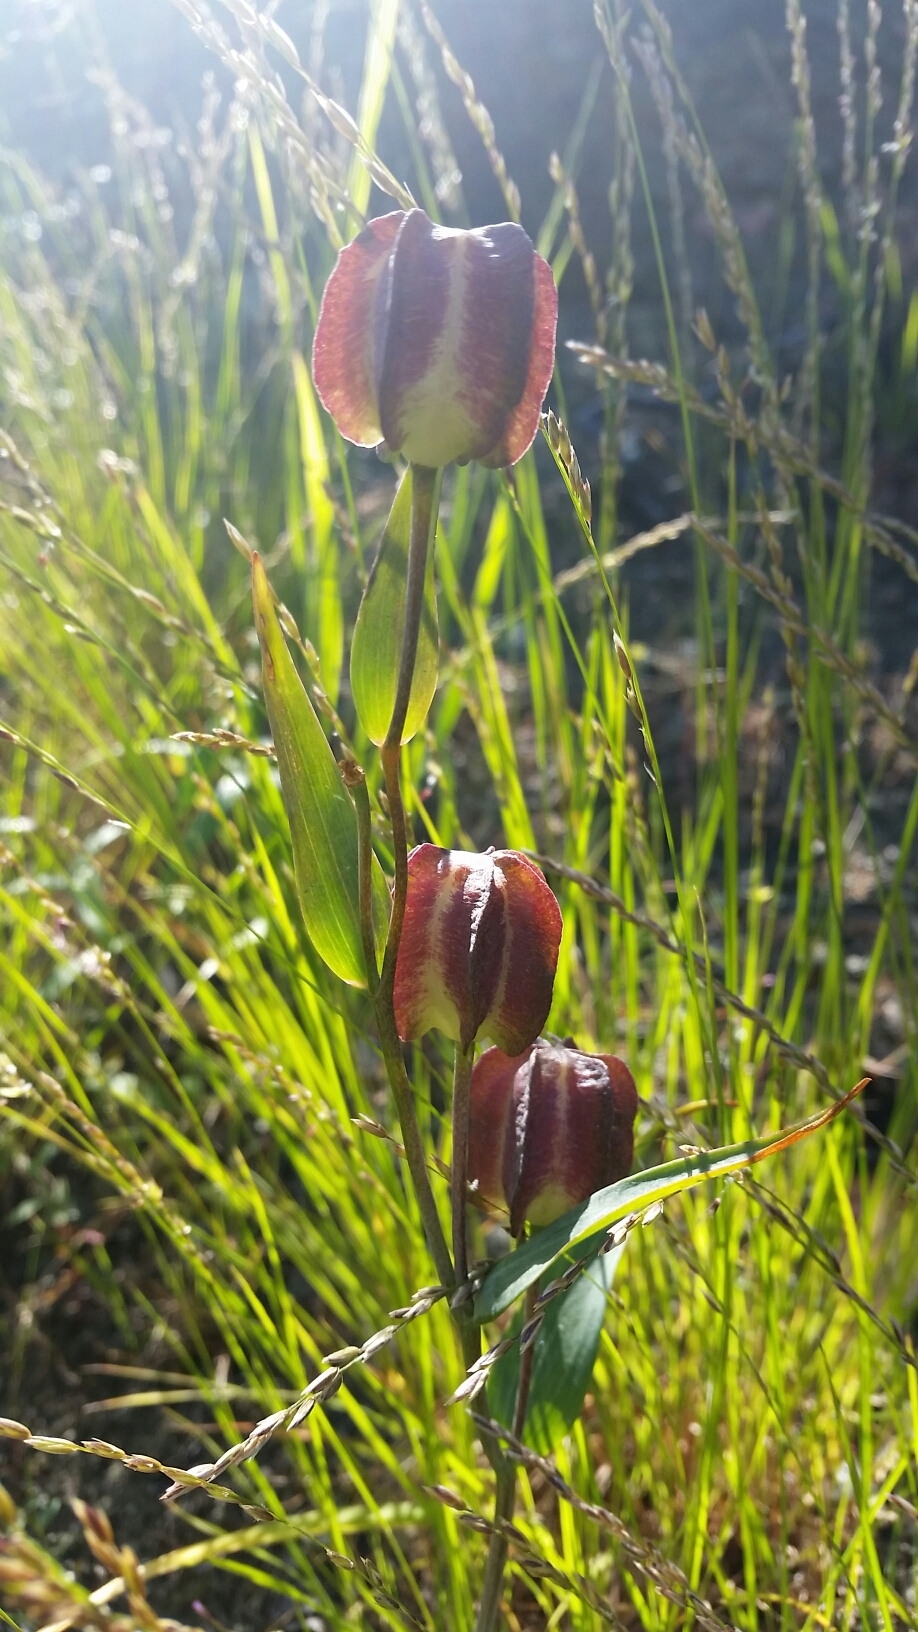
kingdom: Plantae
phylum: Tracheophyta
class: Liliopsida
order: Liliales
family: Liliaceae
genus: Fritillaria
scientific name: Fritillaria affinis
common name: Ojai fritillary
